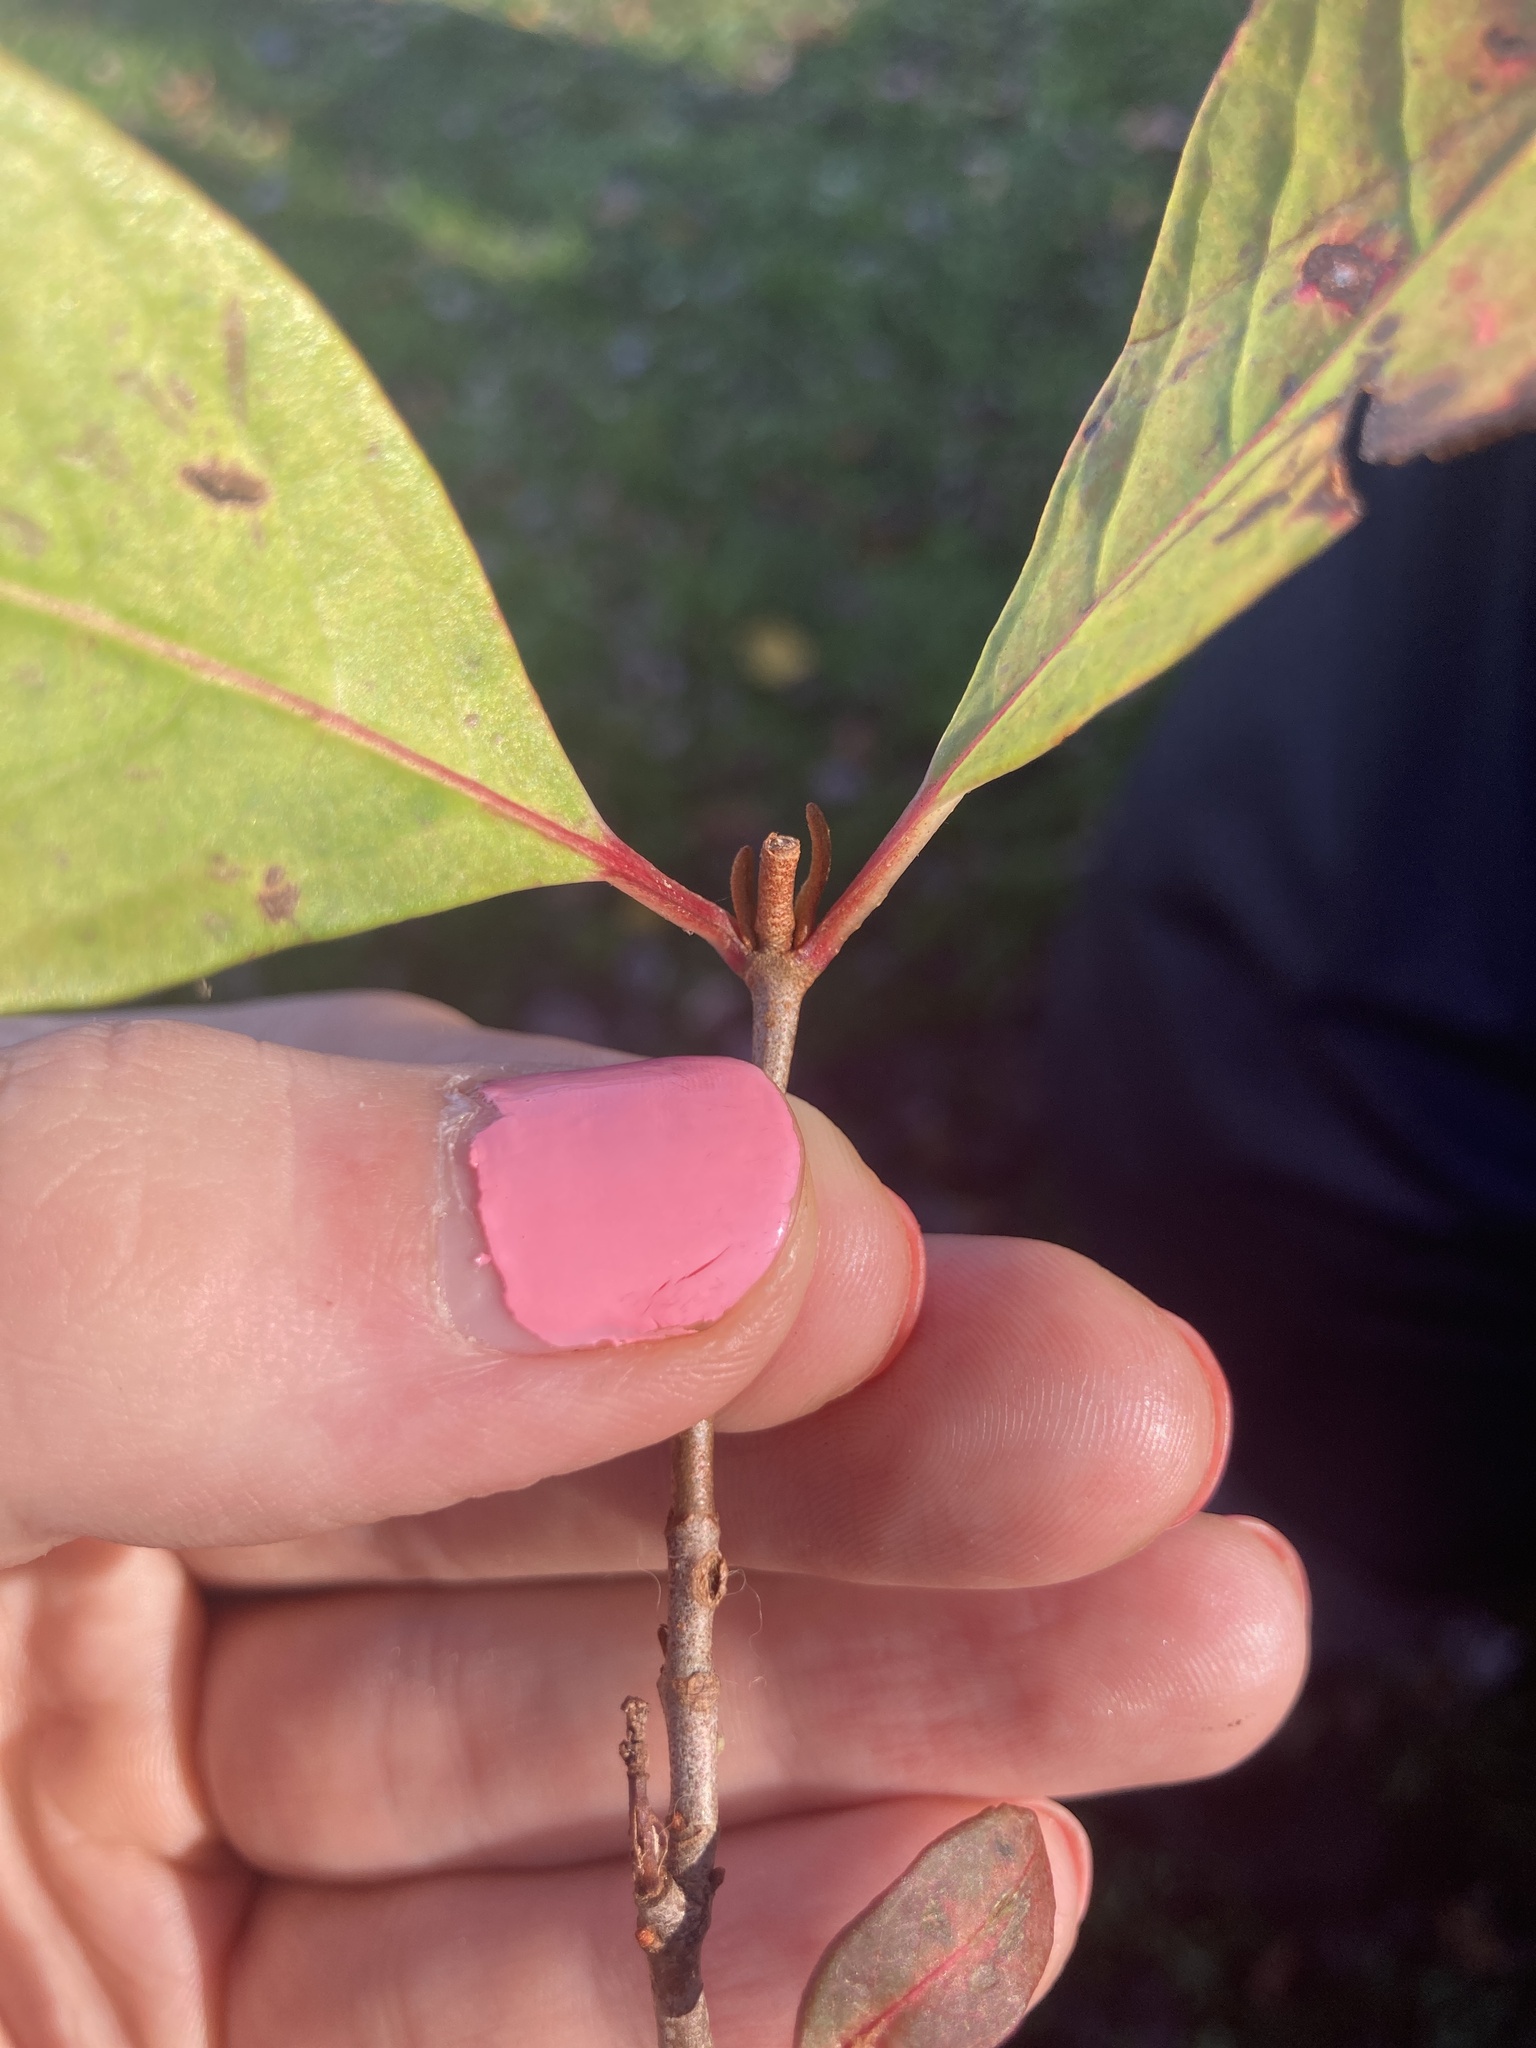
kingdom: Plantae
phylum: Tracheophyta
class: Magnoliopsida
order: Dipsacales
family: Viburnaceae
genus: Viburnum
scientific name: Viburnum cassinoides
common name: Swamp haw
